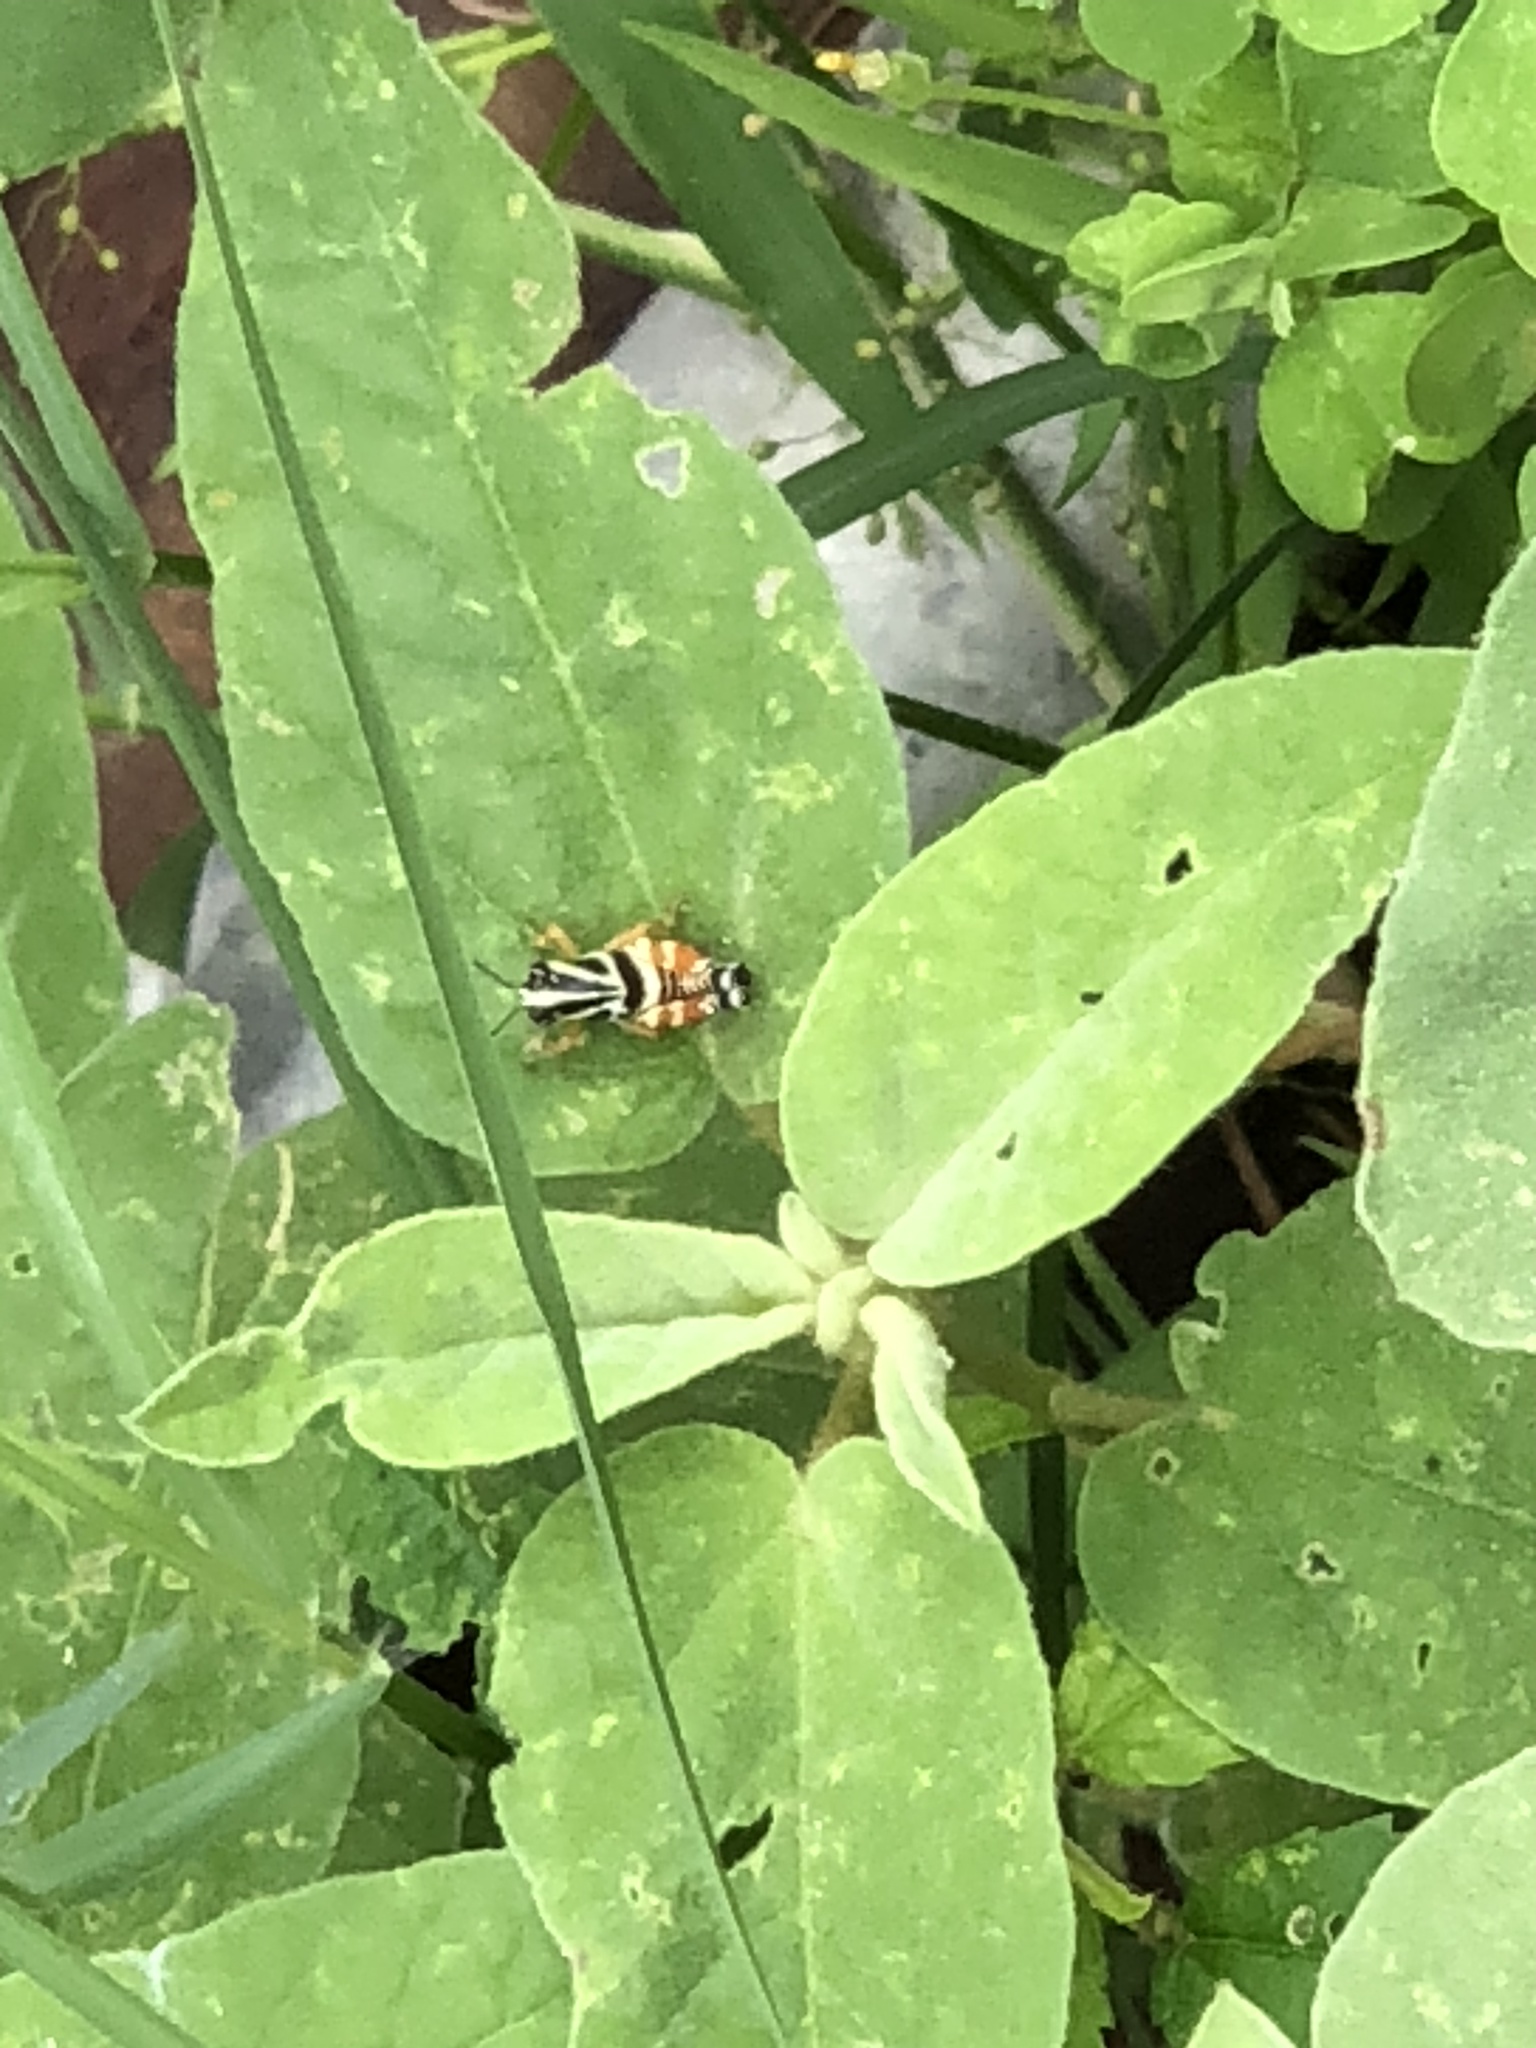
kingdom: Animalia
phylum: Arthropoda
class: Insecta
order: Orthoptera
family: Acrididae
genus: Aidemona
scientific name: Aidemona azteca
